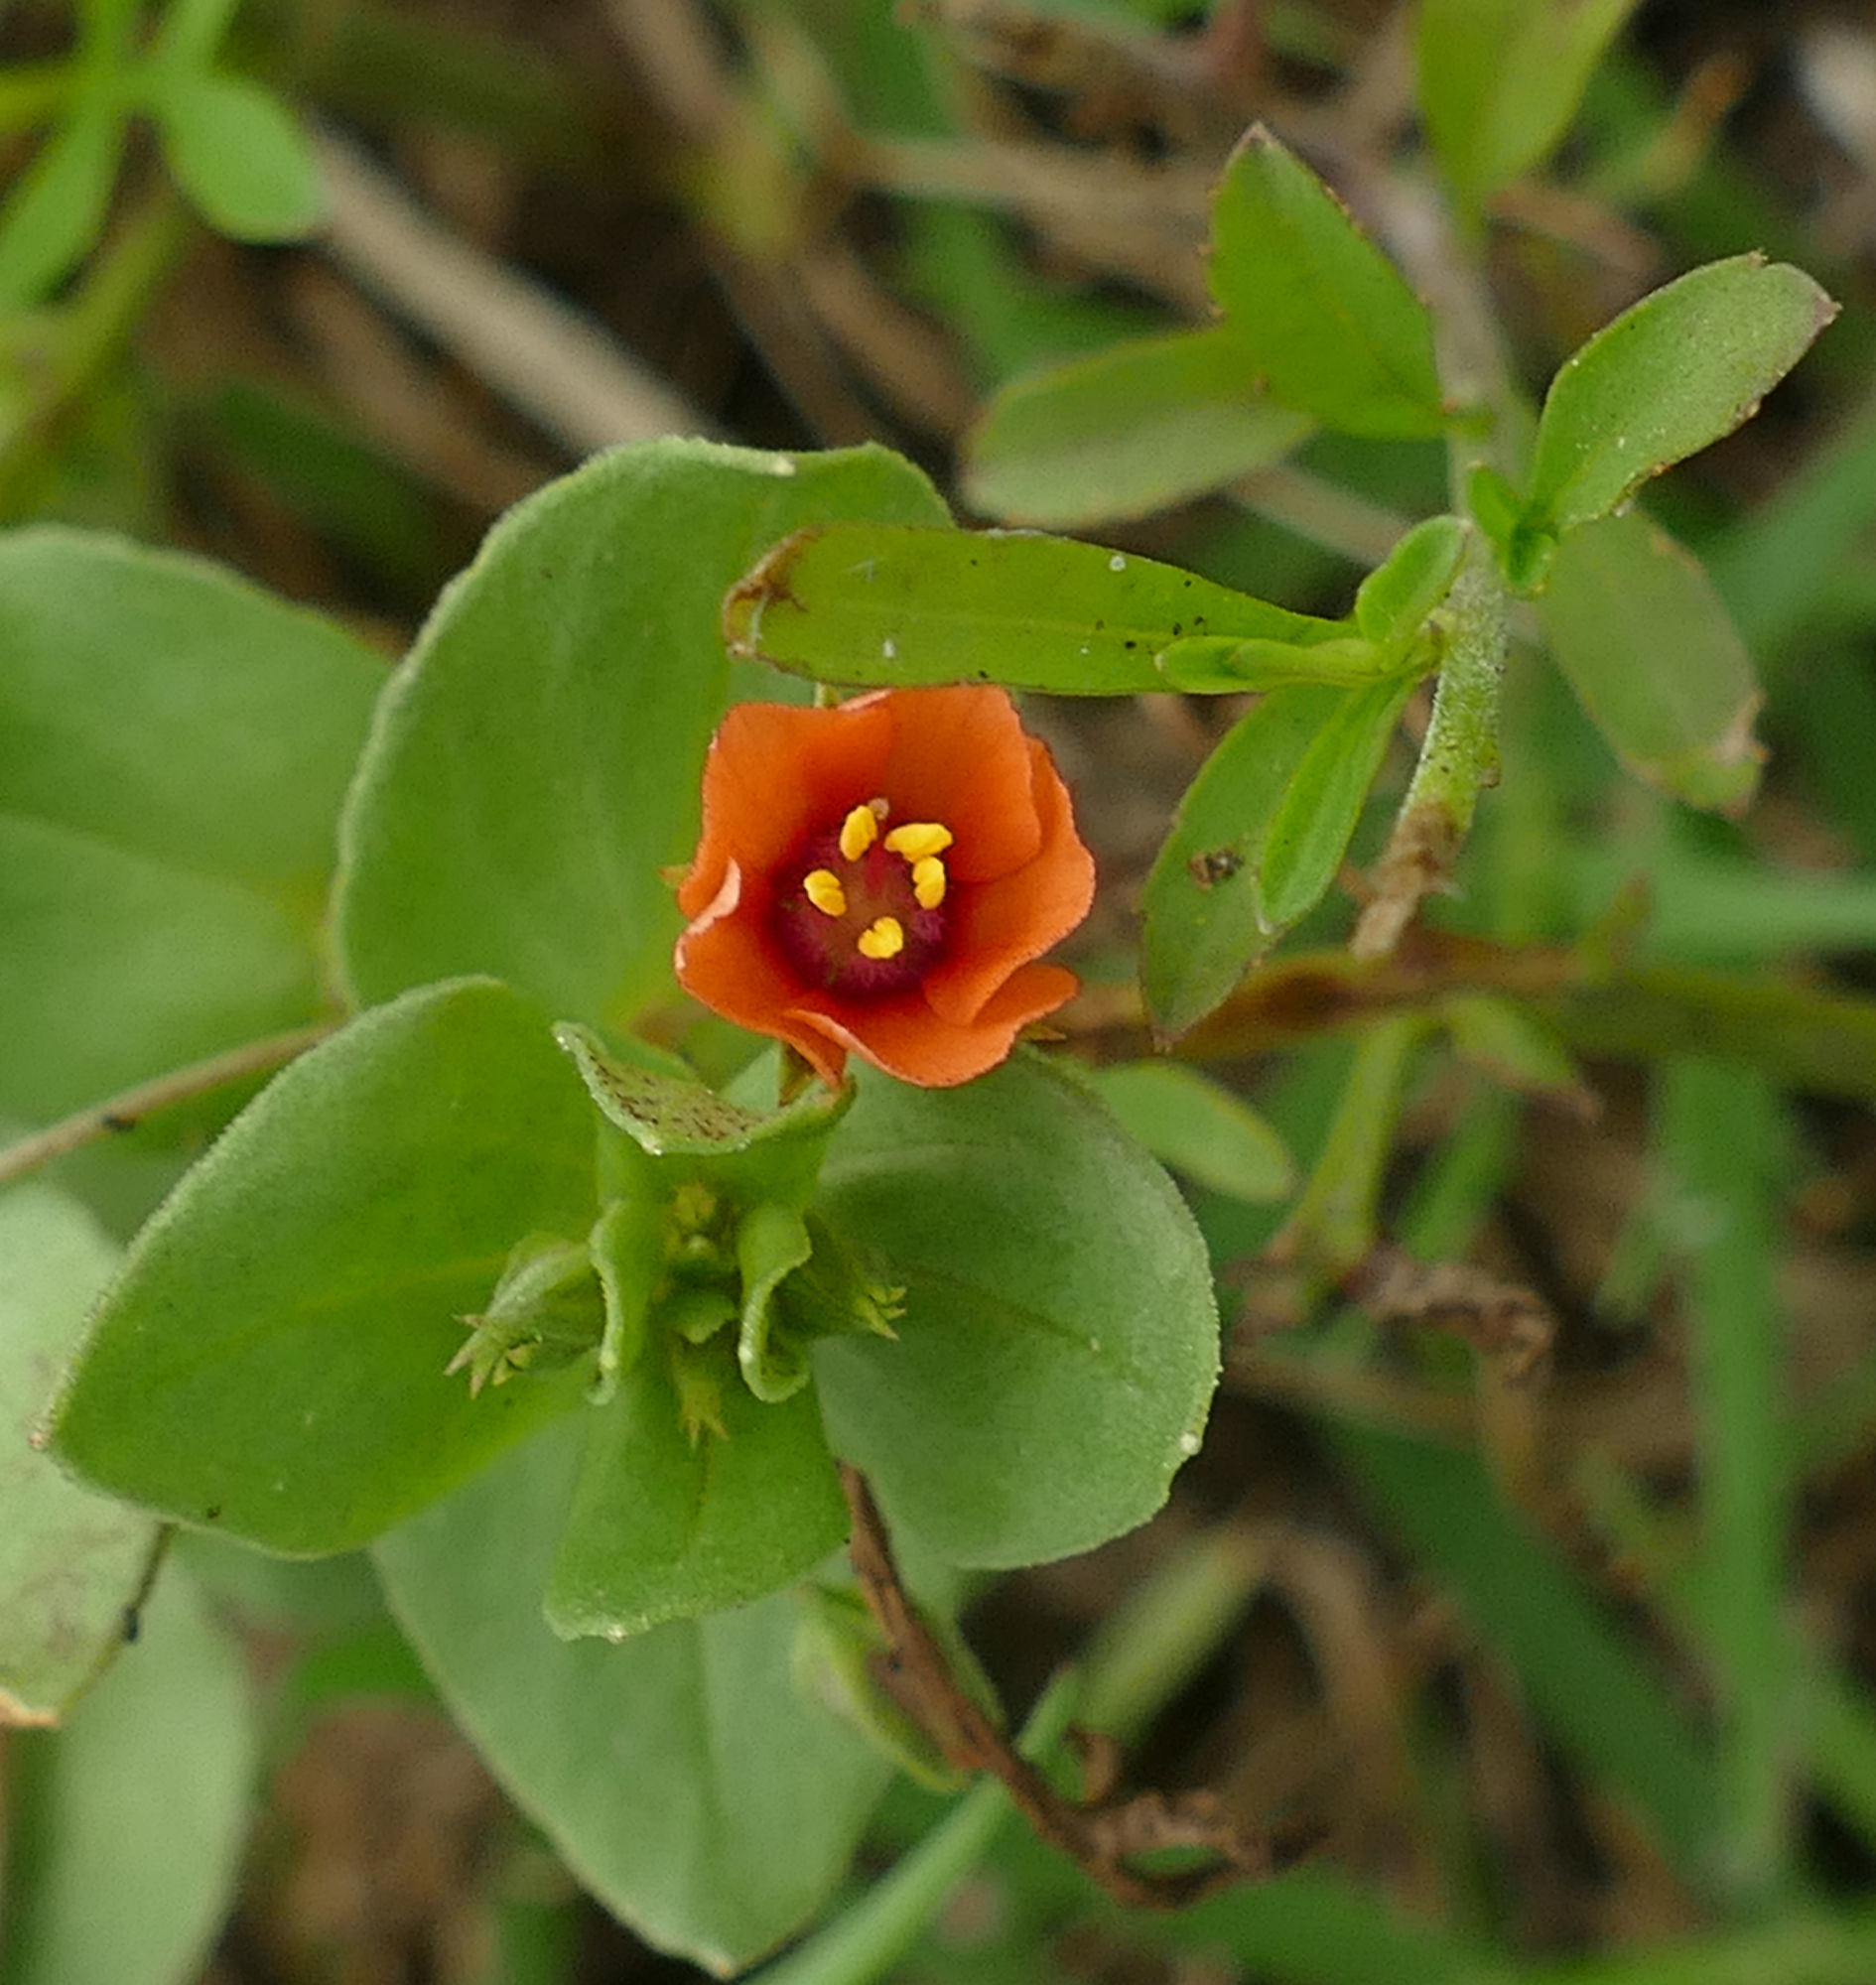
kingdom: Plantae
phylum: Tracheophyta
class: Magnoliopsida
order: Ericales
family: Primulaceae
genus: Lysimachia
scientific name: Lysimachia arvensis
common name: Scarlet pimpernel
